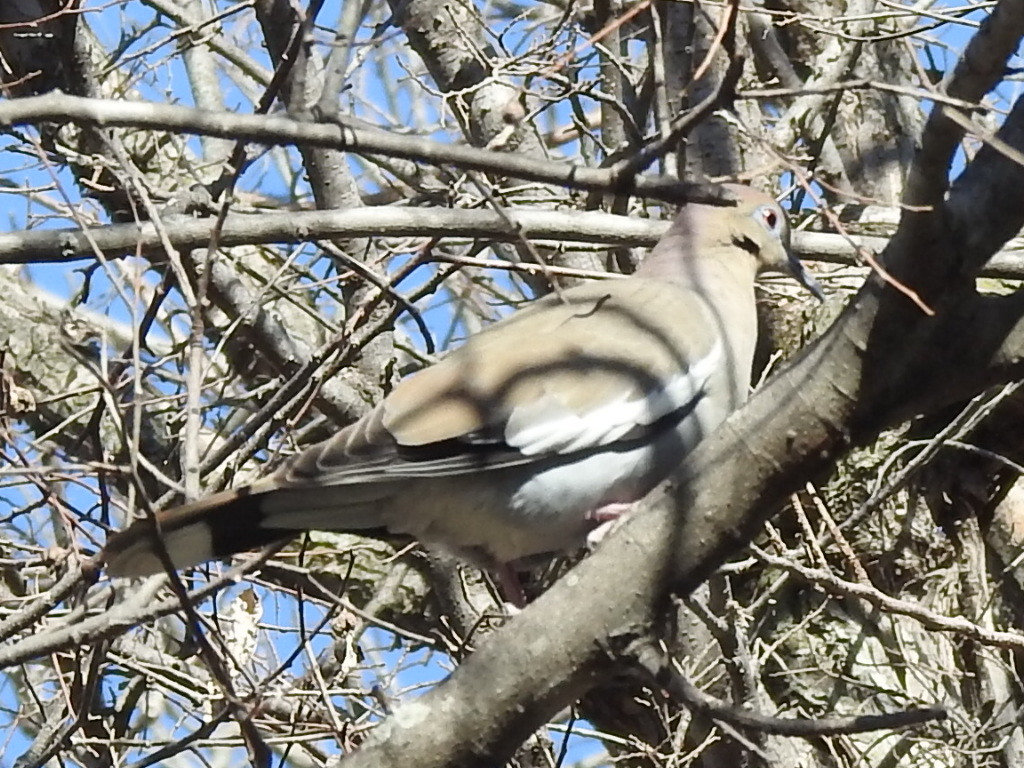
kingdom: Animalia
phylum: Chordata
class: Aves
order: Columbiformes
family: Columbidae
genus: Zenaida
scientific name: Zenaida asiatica
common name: White-winged dove
